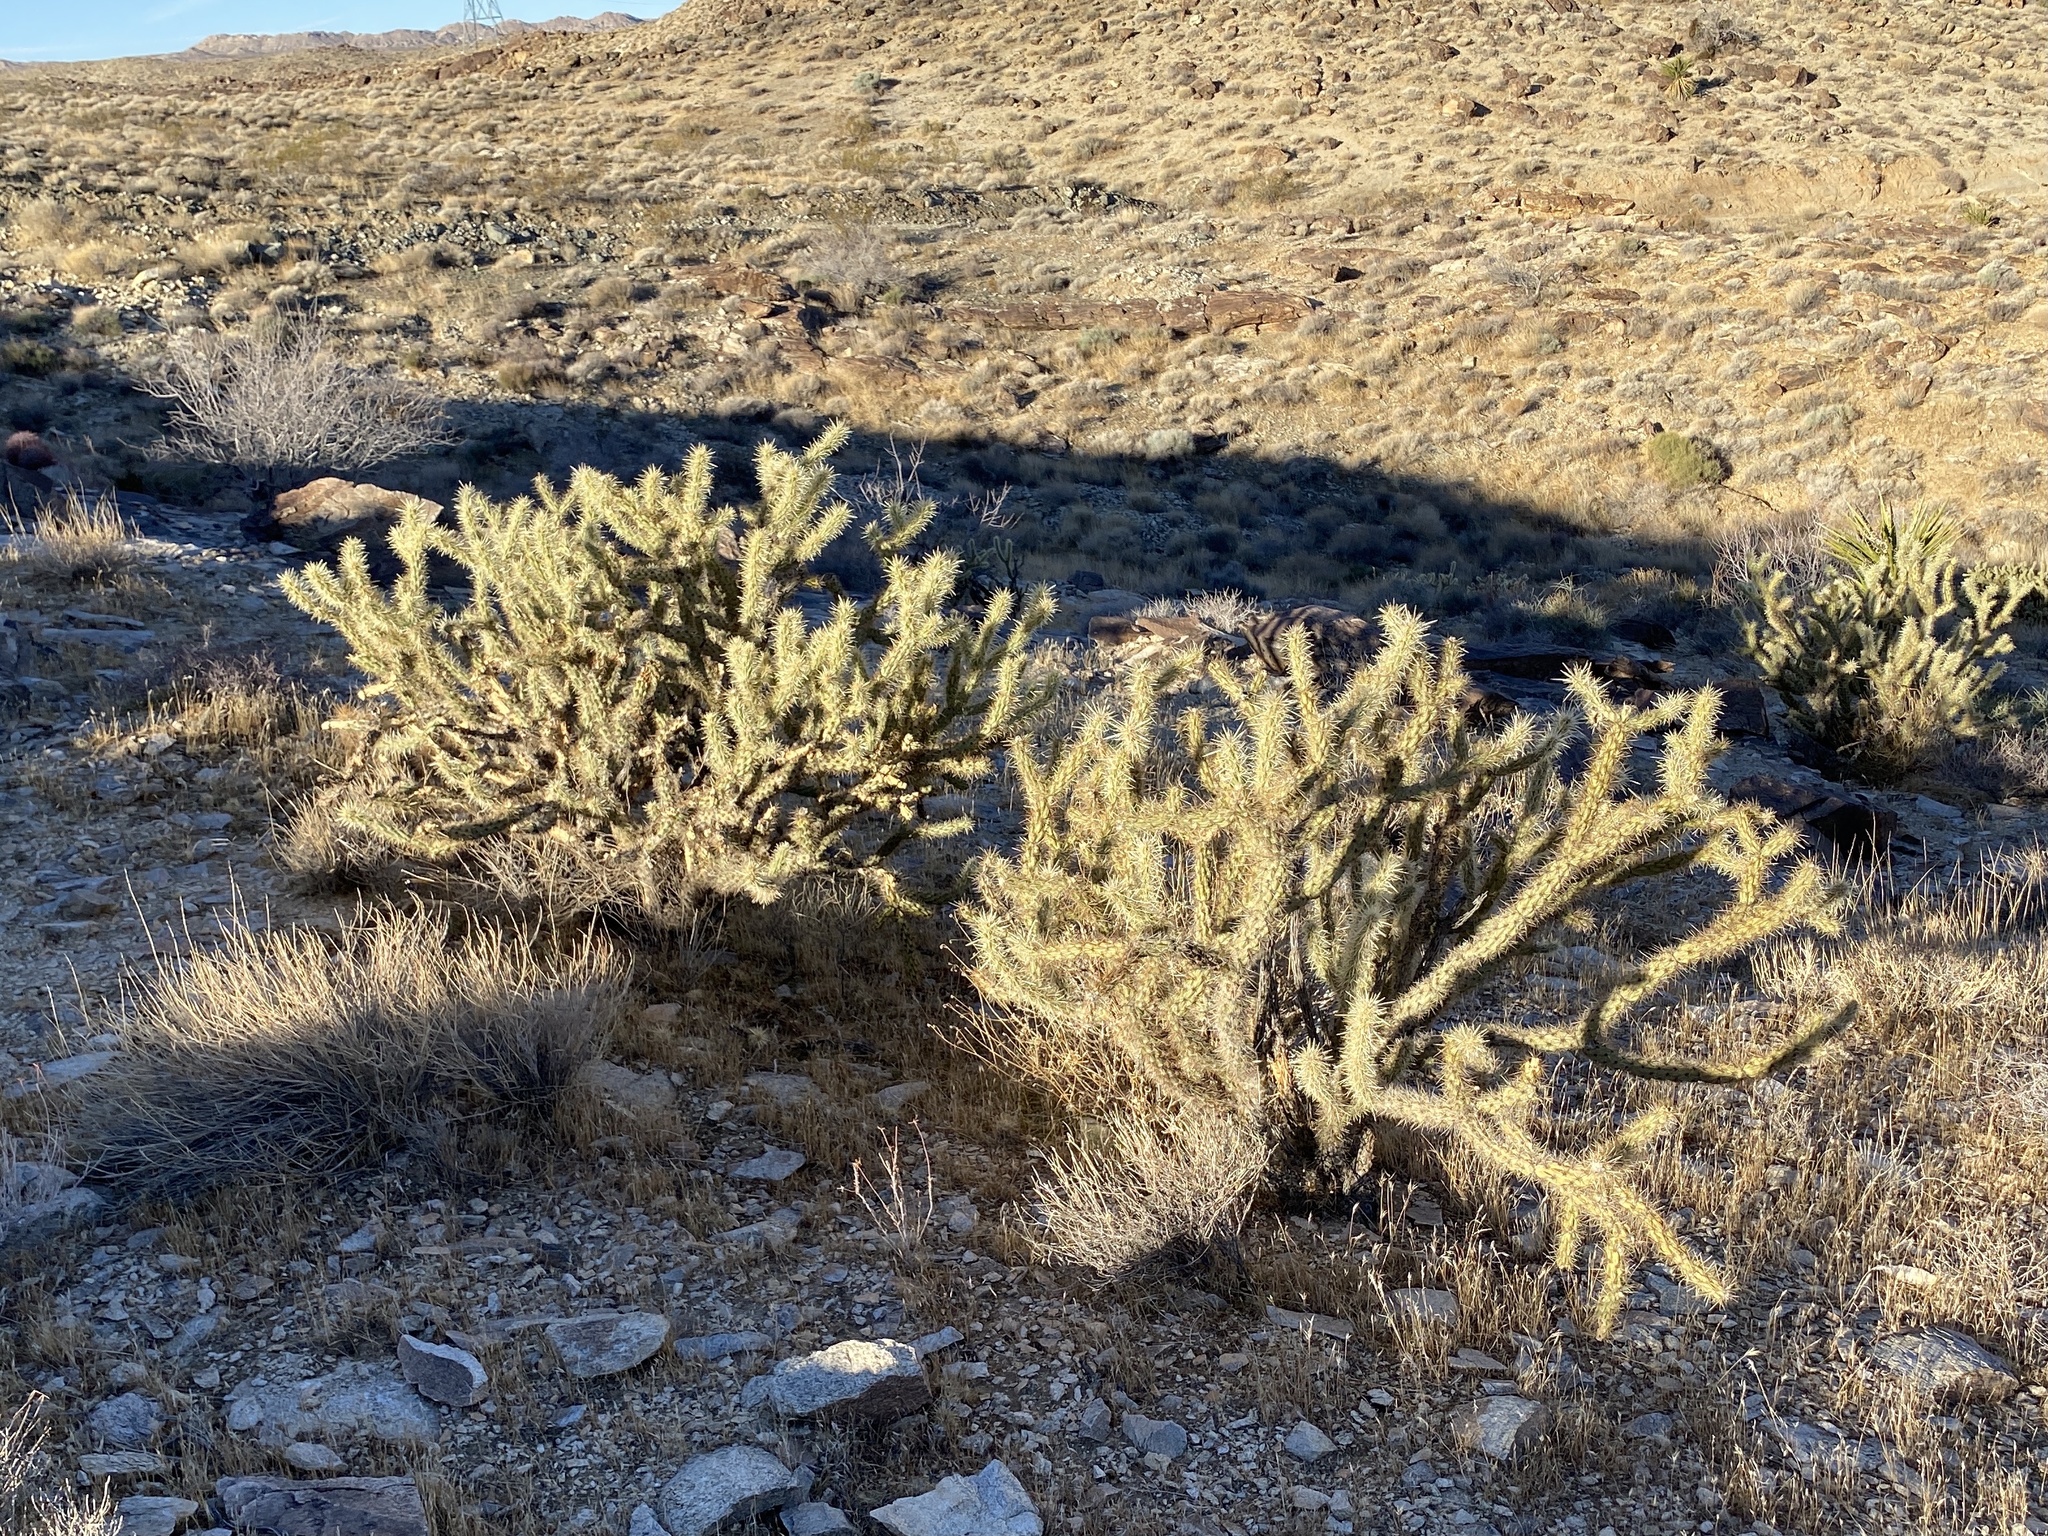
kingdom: Plantae
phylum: Tracheophyta
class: Magnoliopsida
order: Caryophyllales
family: Cactaceae
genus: Cylindropuntia
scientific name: Cylindropuntia acanthocarpa
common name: Buckhorn cholla
